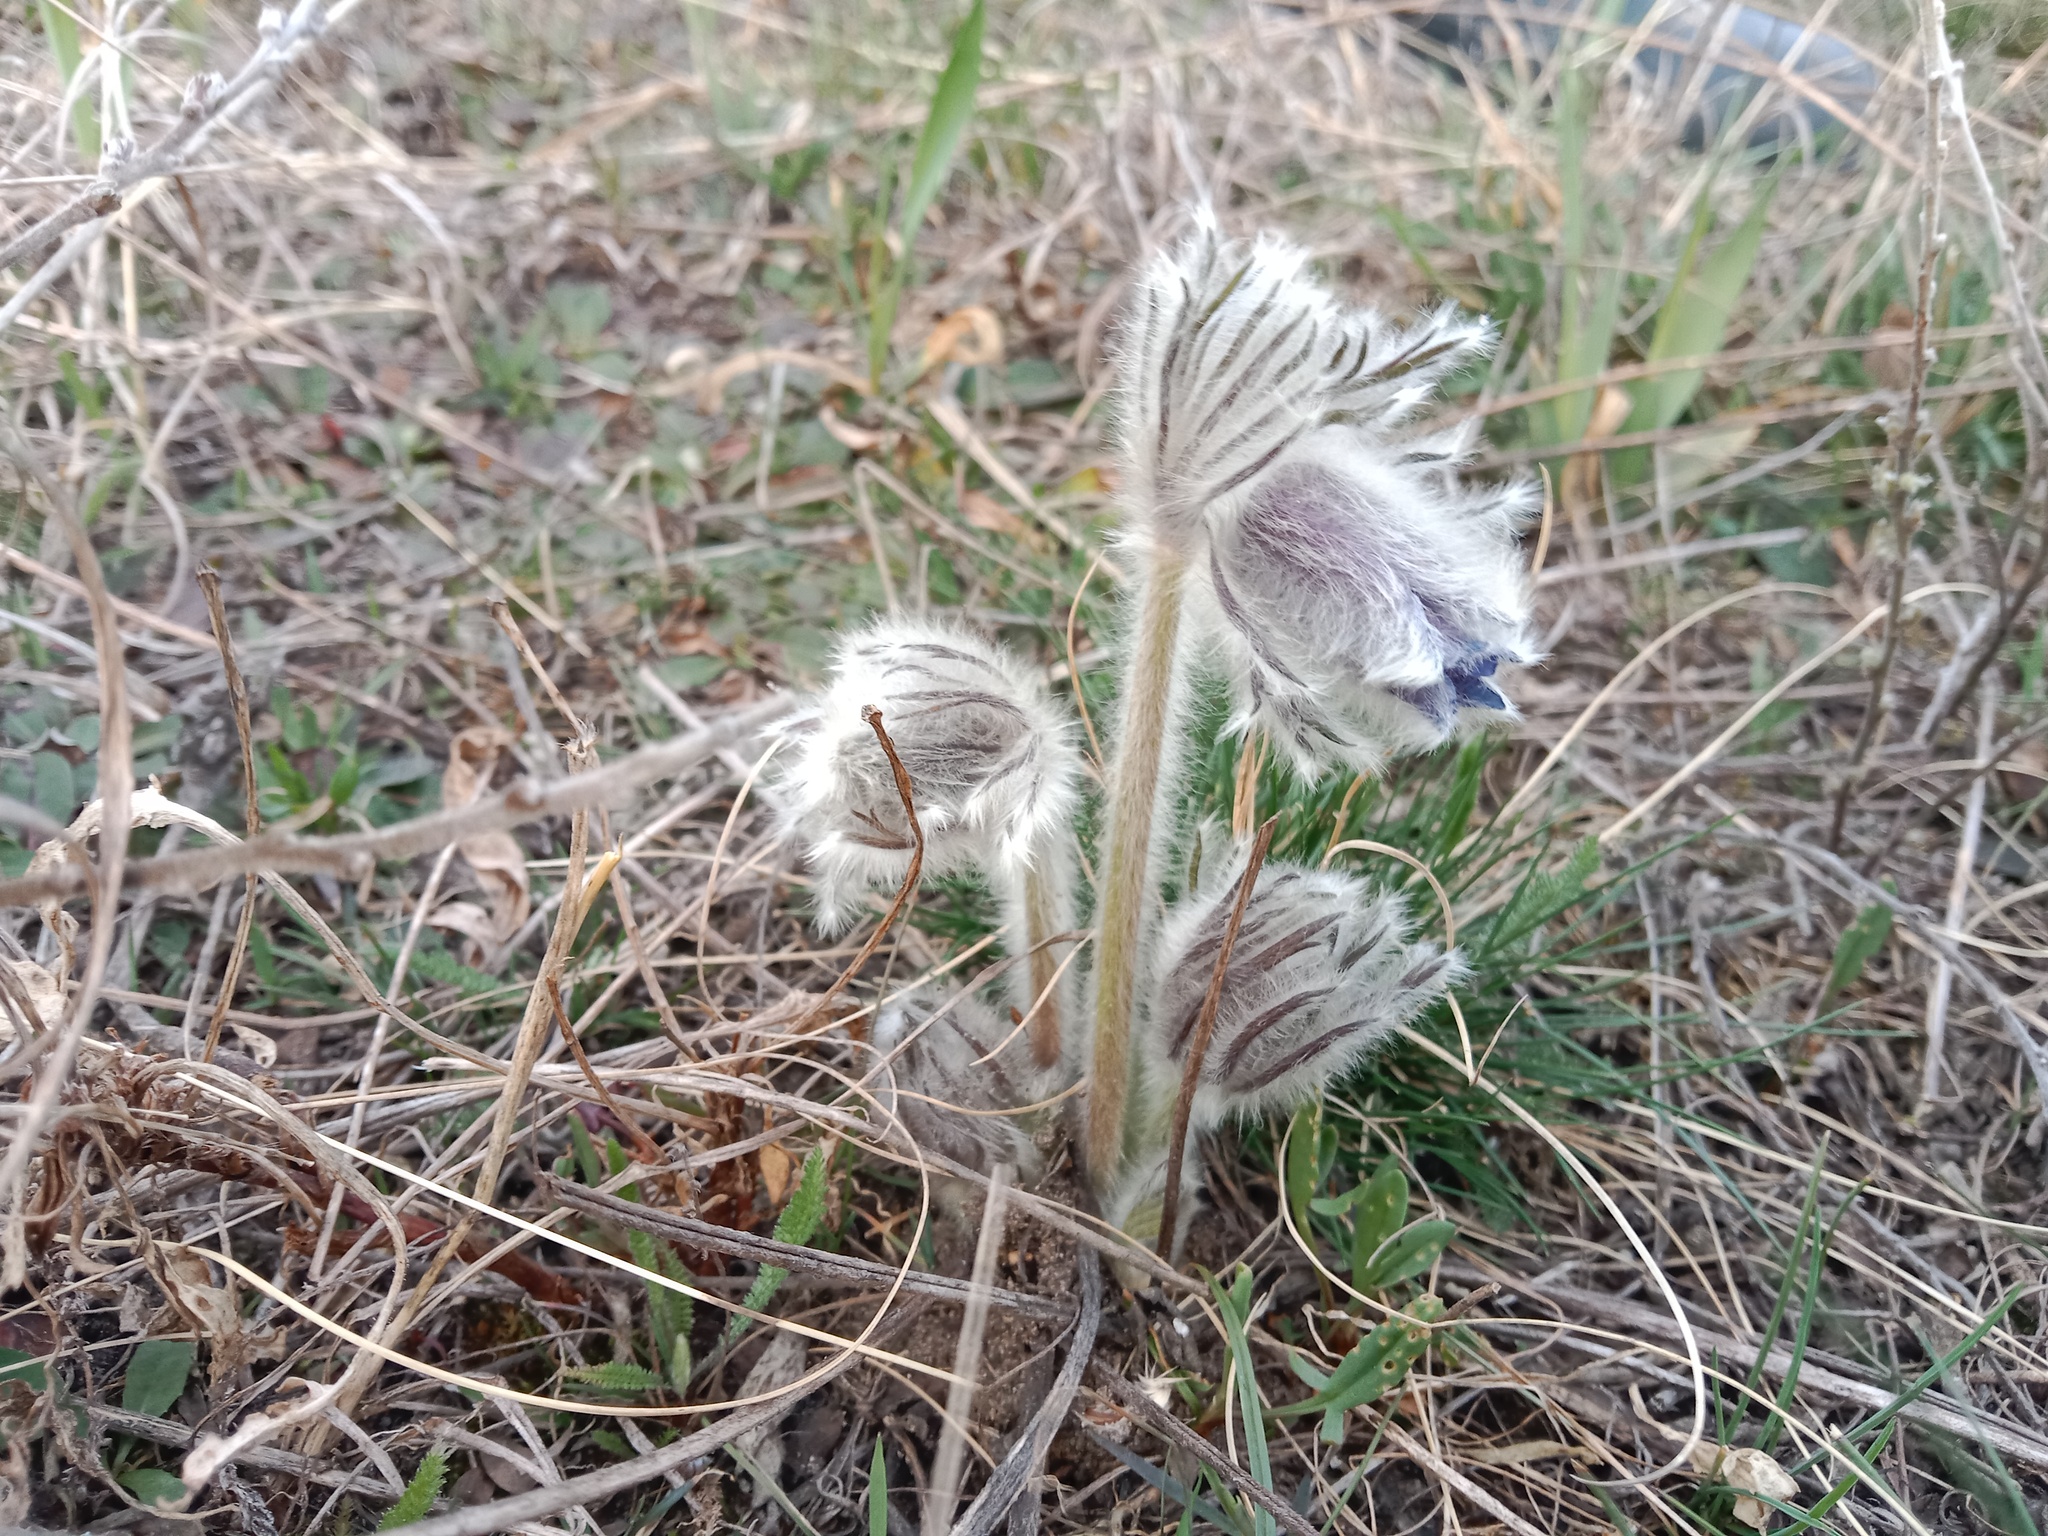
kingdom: Plantae
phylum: Tracheophyta
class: Magnoliopsida
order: Ranunculales
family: Ranunculaceae
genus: Pulsatilla
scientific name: Pulsatilla pratensis
